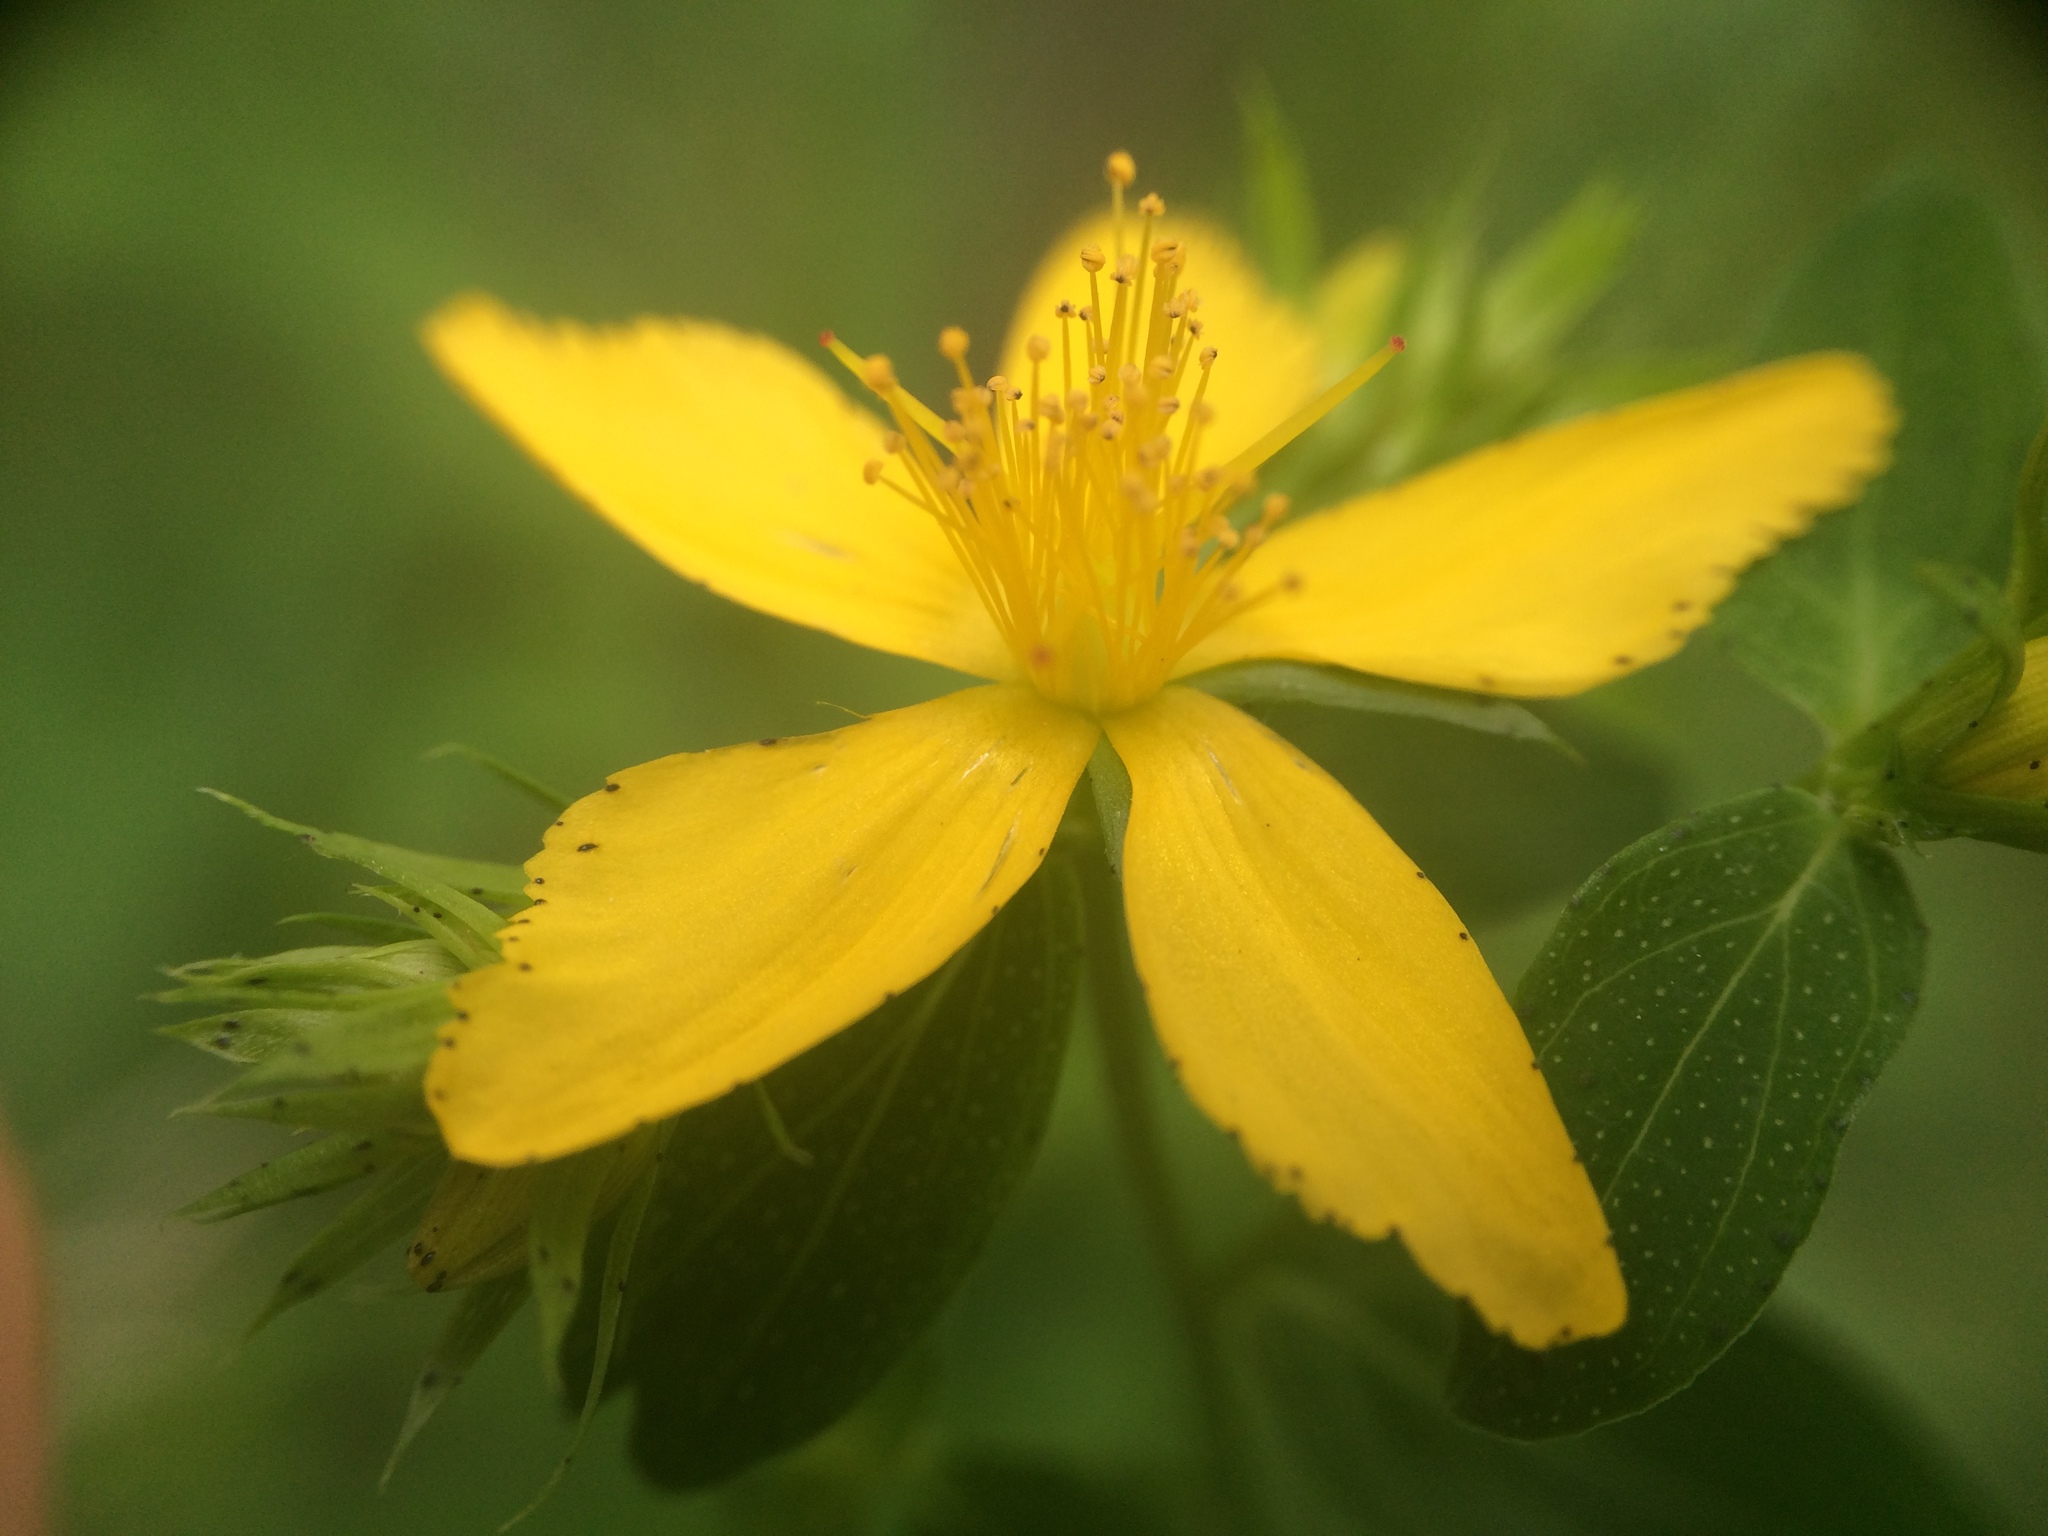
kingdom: Plantae
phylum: Tracheophyta
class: Magnoliopsida
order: Malpighiales
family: Hypericaceae
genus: Hypericum
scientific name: Hypericum perforatum
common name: Common st. johnswort
